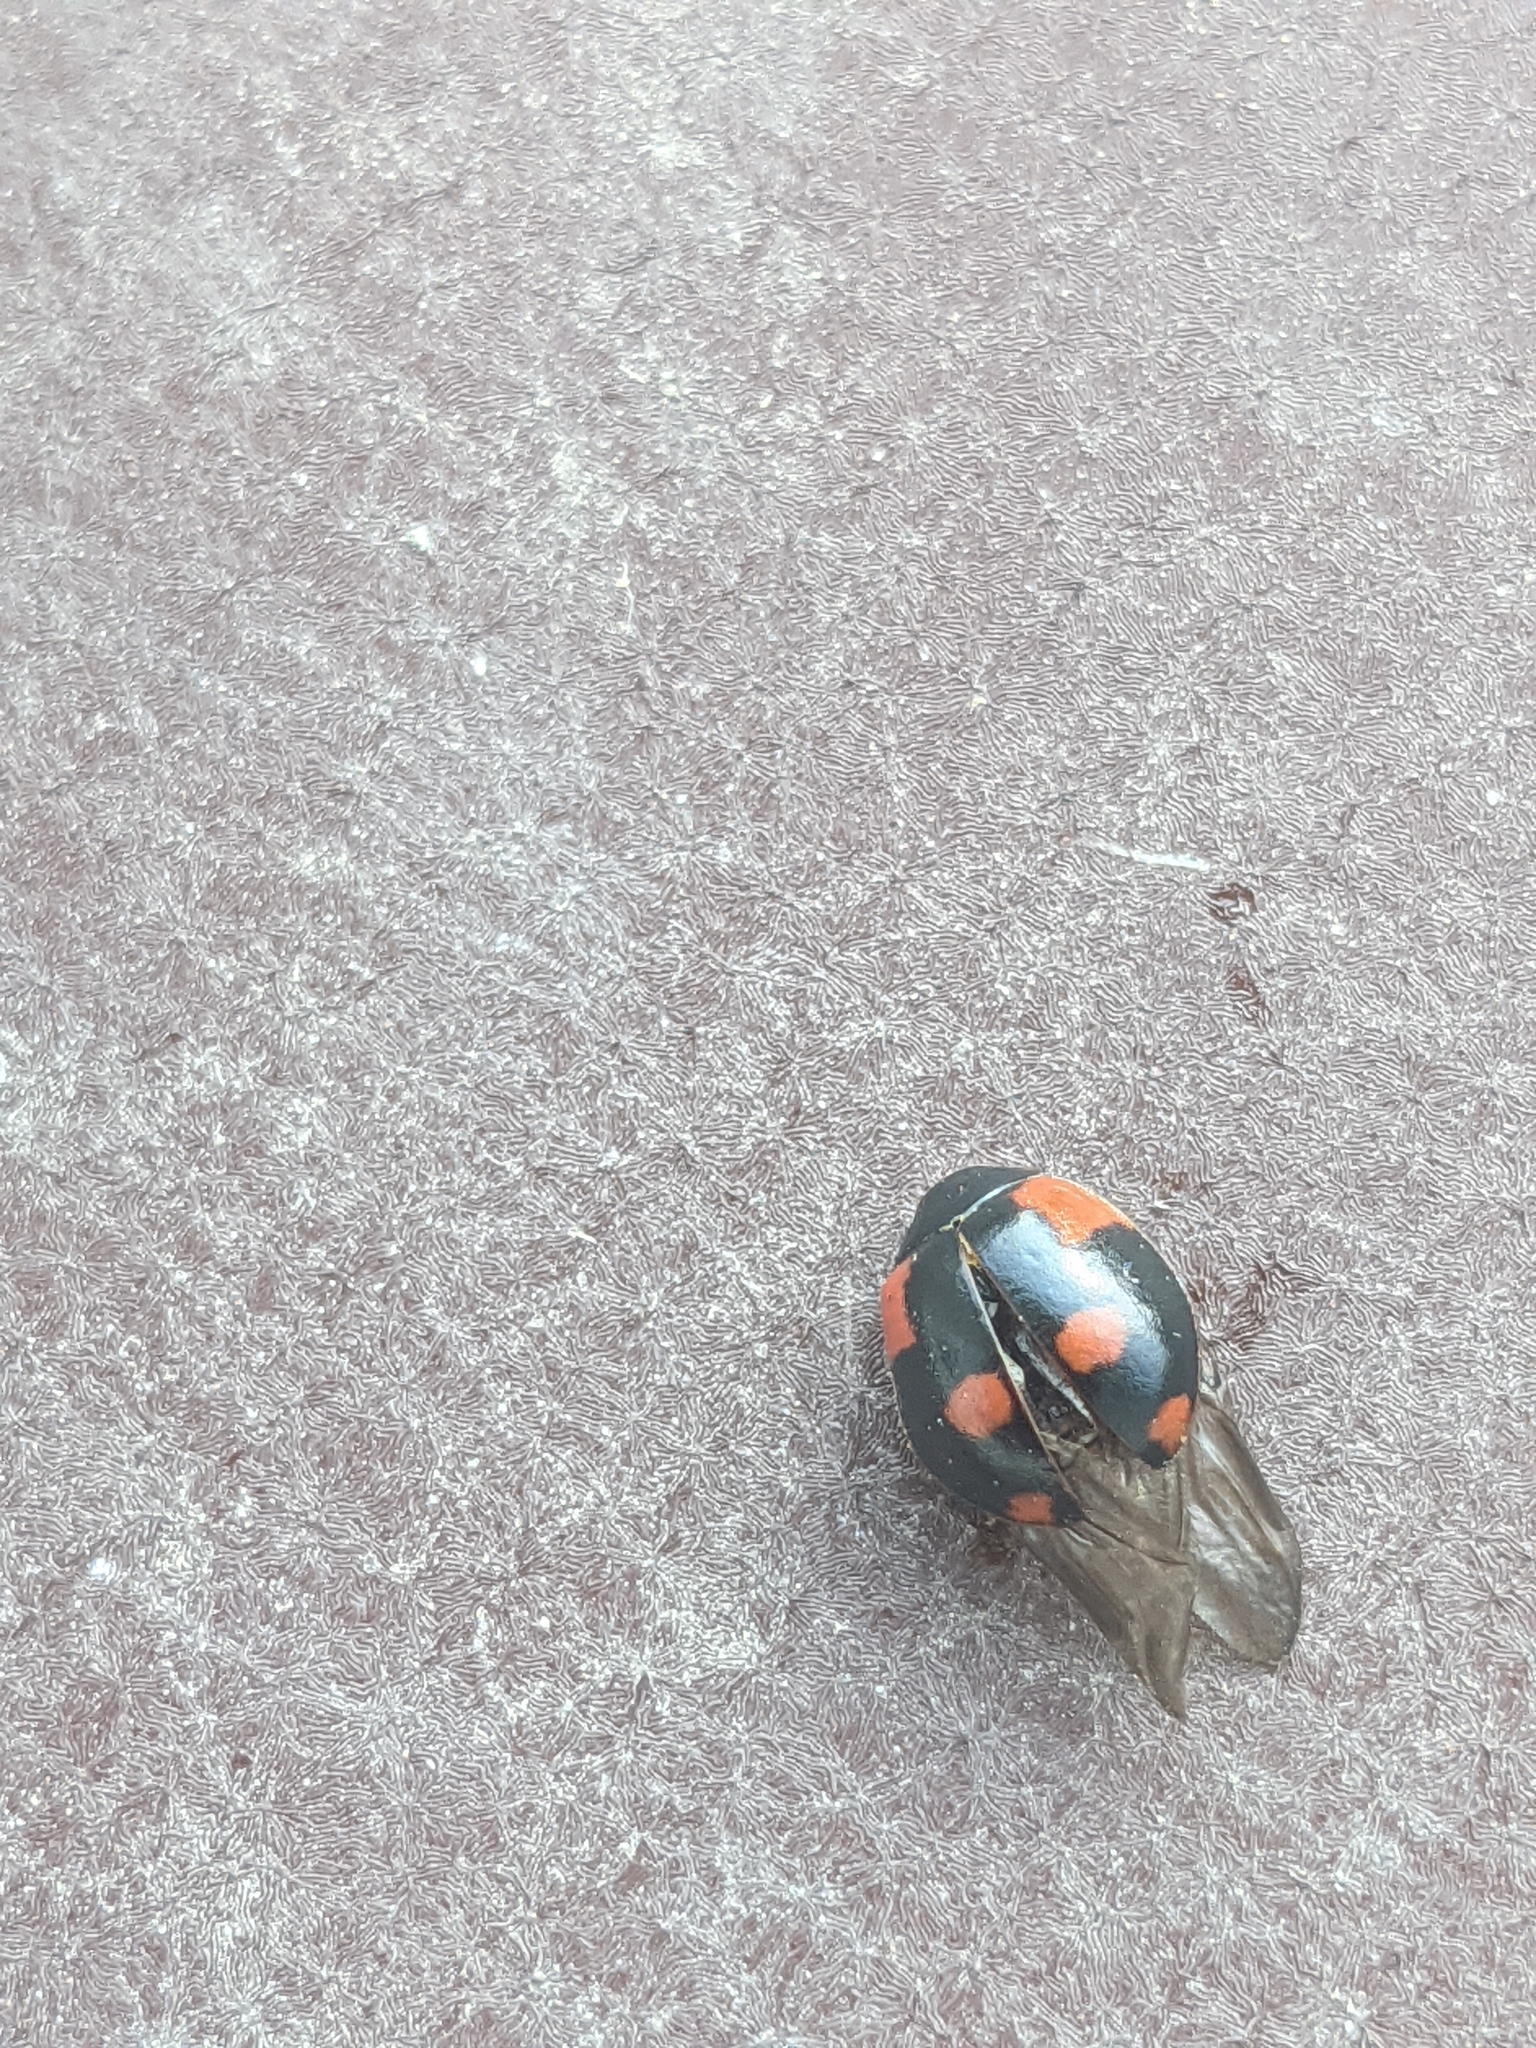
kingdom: Animalia
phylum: Arthropoda
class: Insecta
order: Coleoptera
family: Coccinellidae
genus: Adalia
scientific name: Adalia bipunctata
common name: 2-spot ladybird
